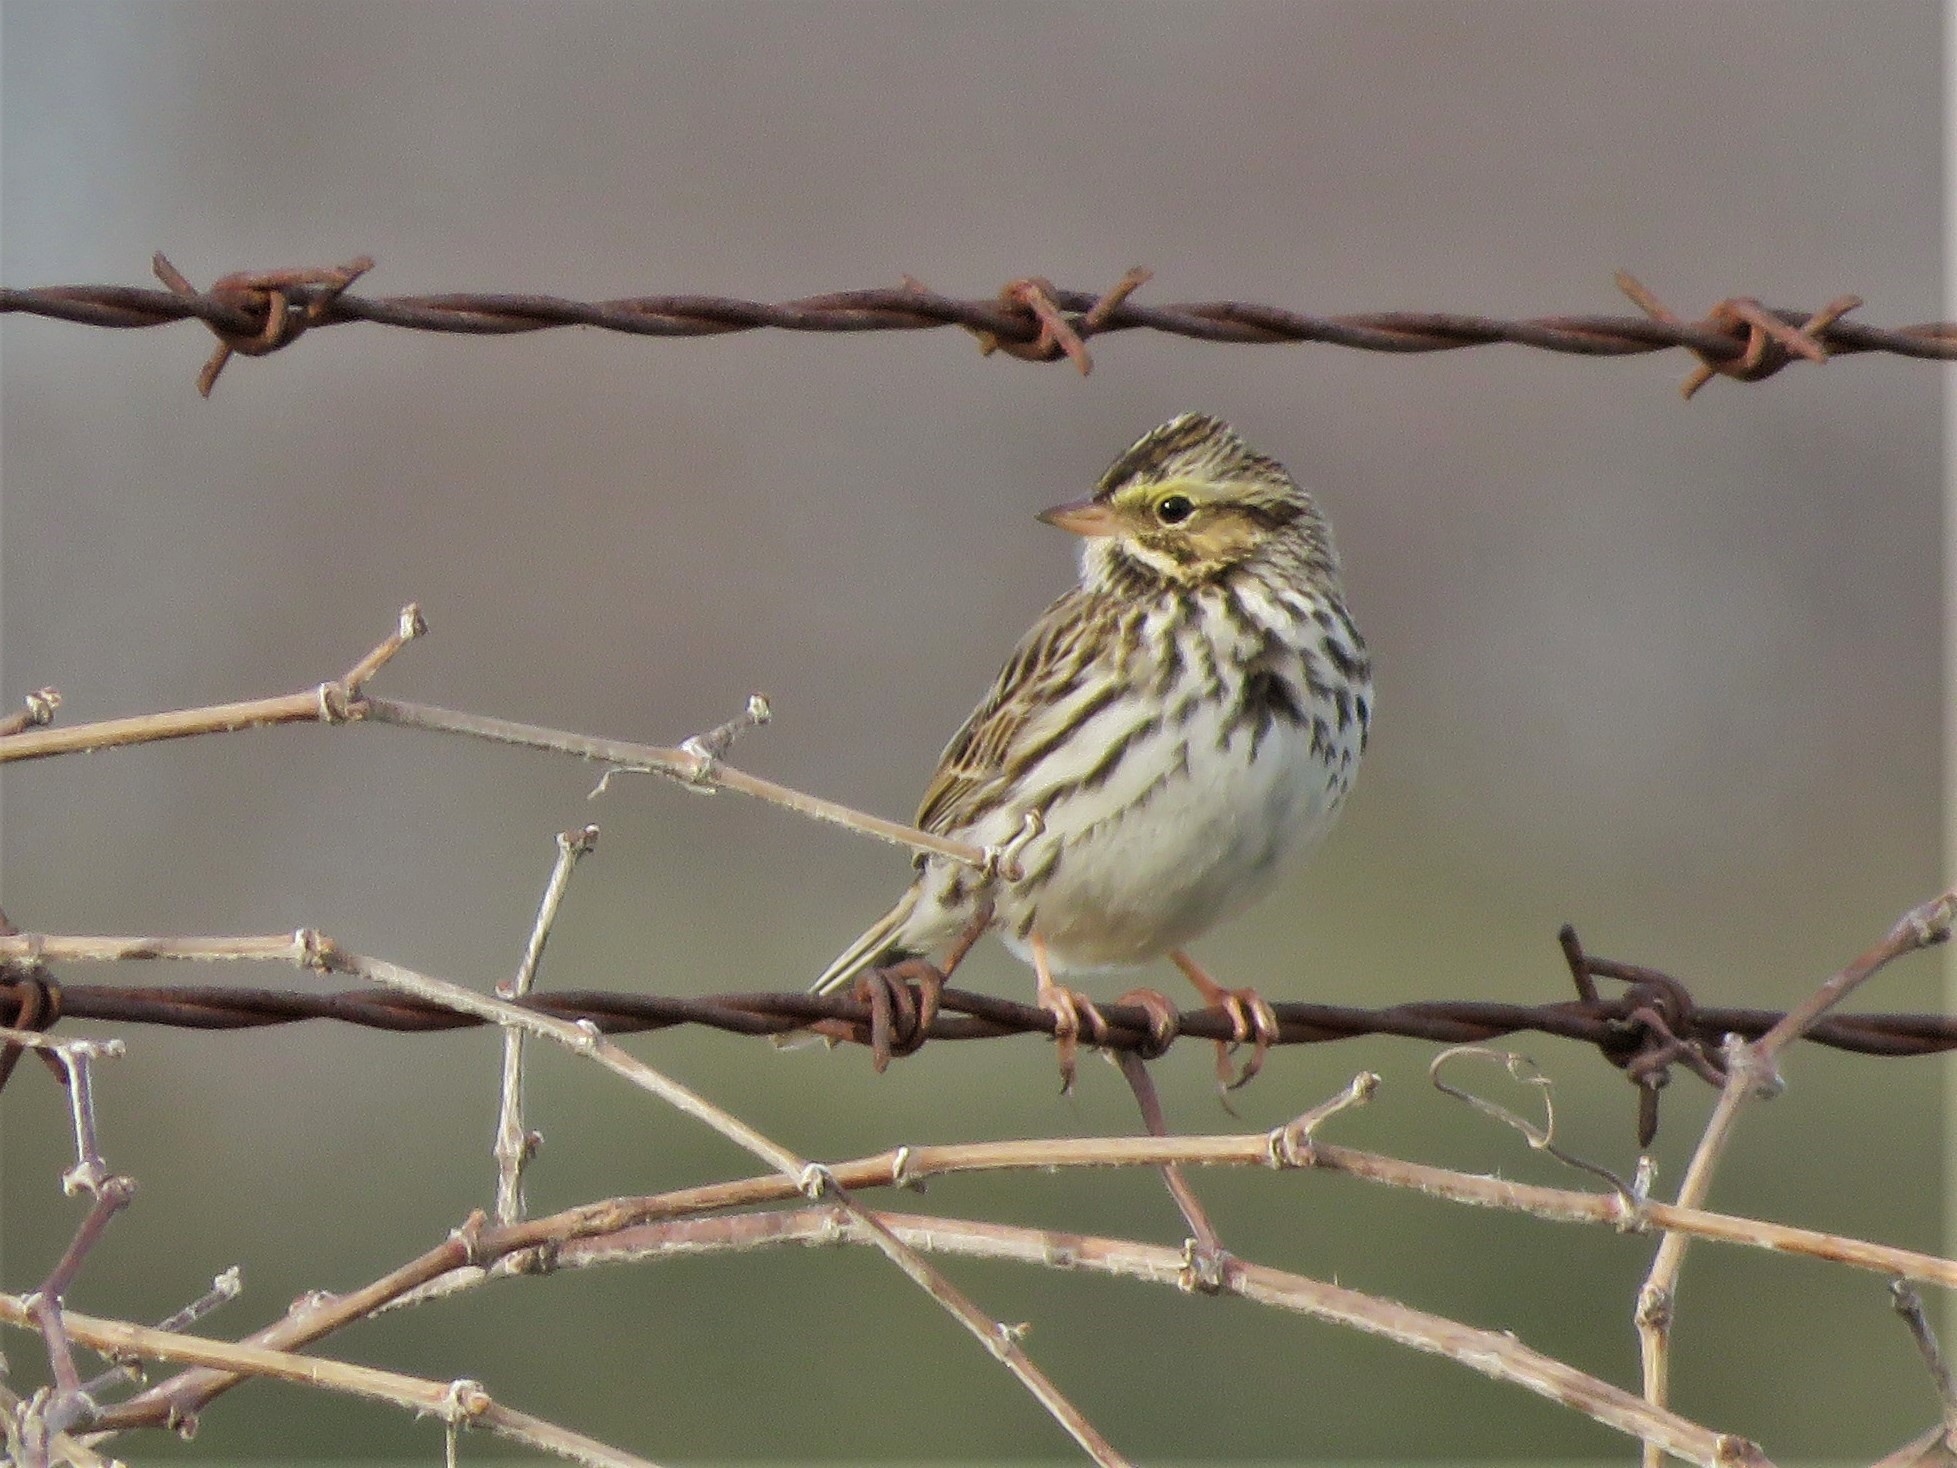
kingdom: Animalia
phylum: Chordata
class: Aves
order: Passeriformes
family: Passerellidae
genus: Passerculus
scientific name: Passerculus sandwichensis
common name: Savannah sparrow
